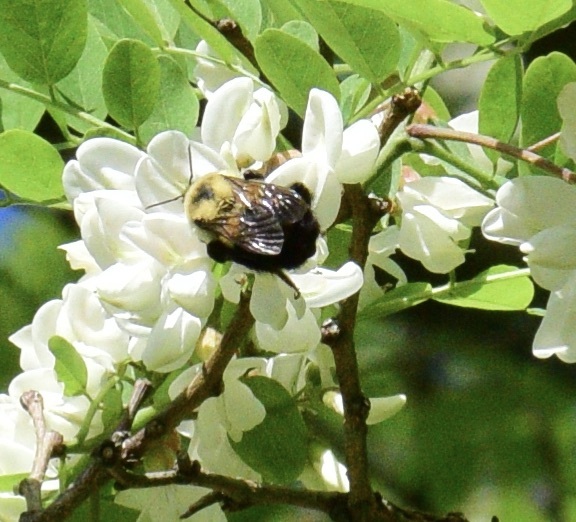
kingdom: Animalia
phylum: Arthropoda
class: Insecta
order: Hymenoptera
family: Apidae
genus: Bombus
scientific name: Bombus impatiens
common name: Common eastern bumble bee
